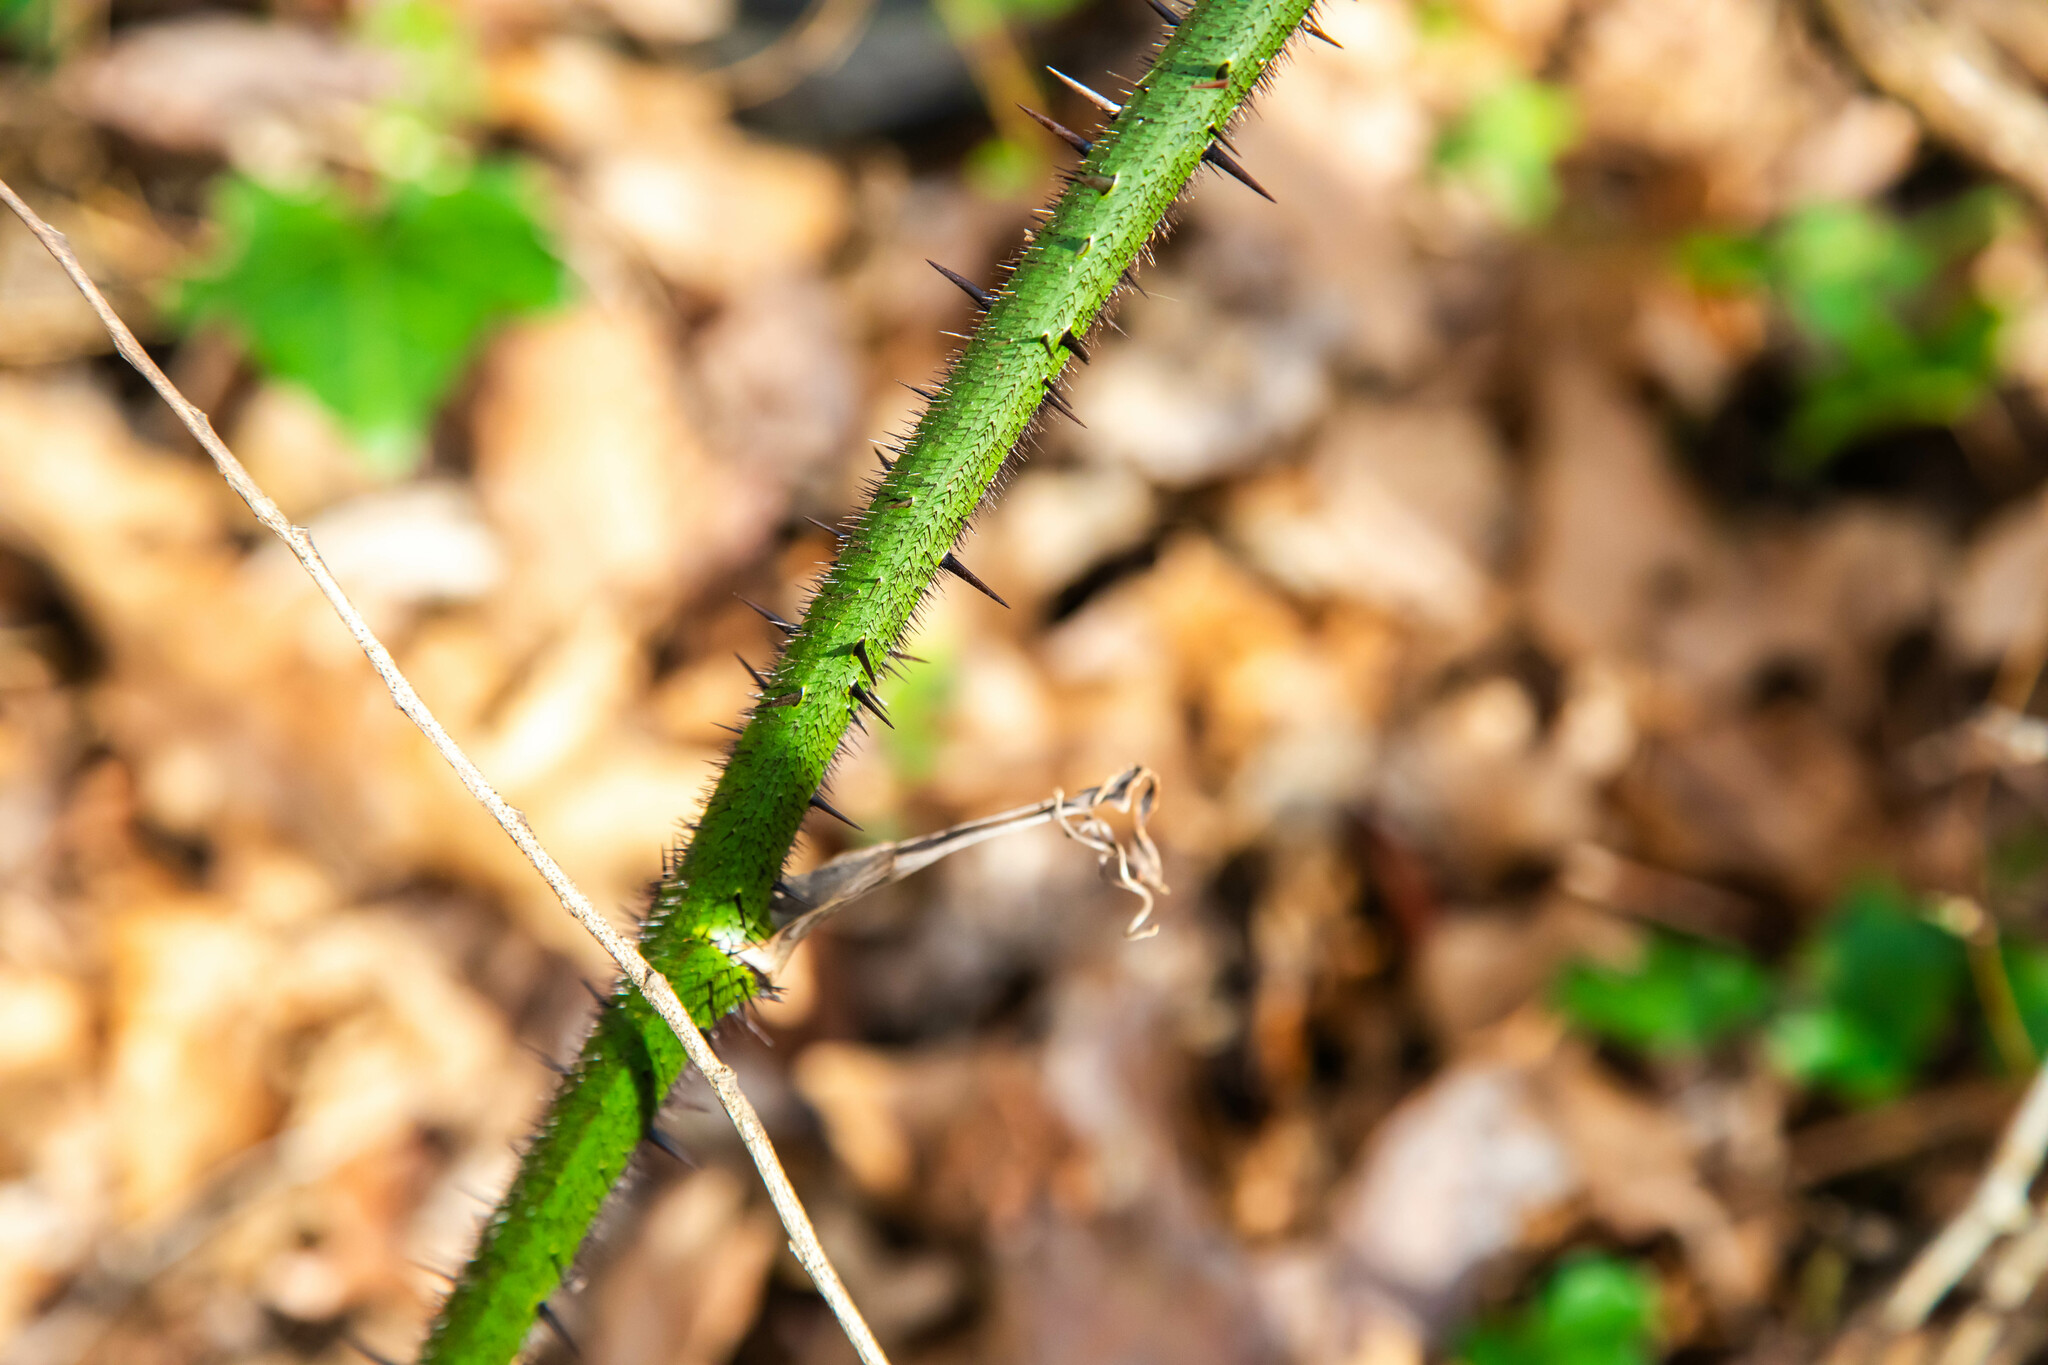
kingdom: Plantae
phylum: Tracheophyta
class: Liliopsida
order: Liliales
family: Smilacaceae
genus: Smilax
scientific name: Smilax tamnoides
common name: Hellfetter
